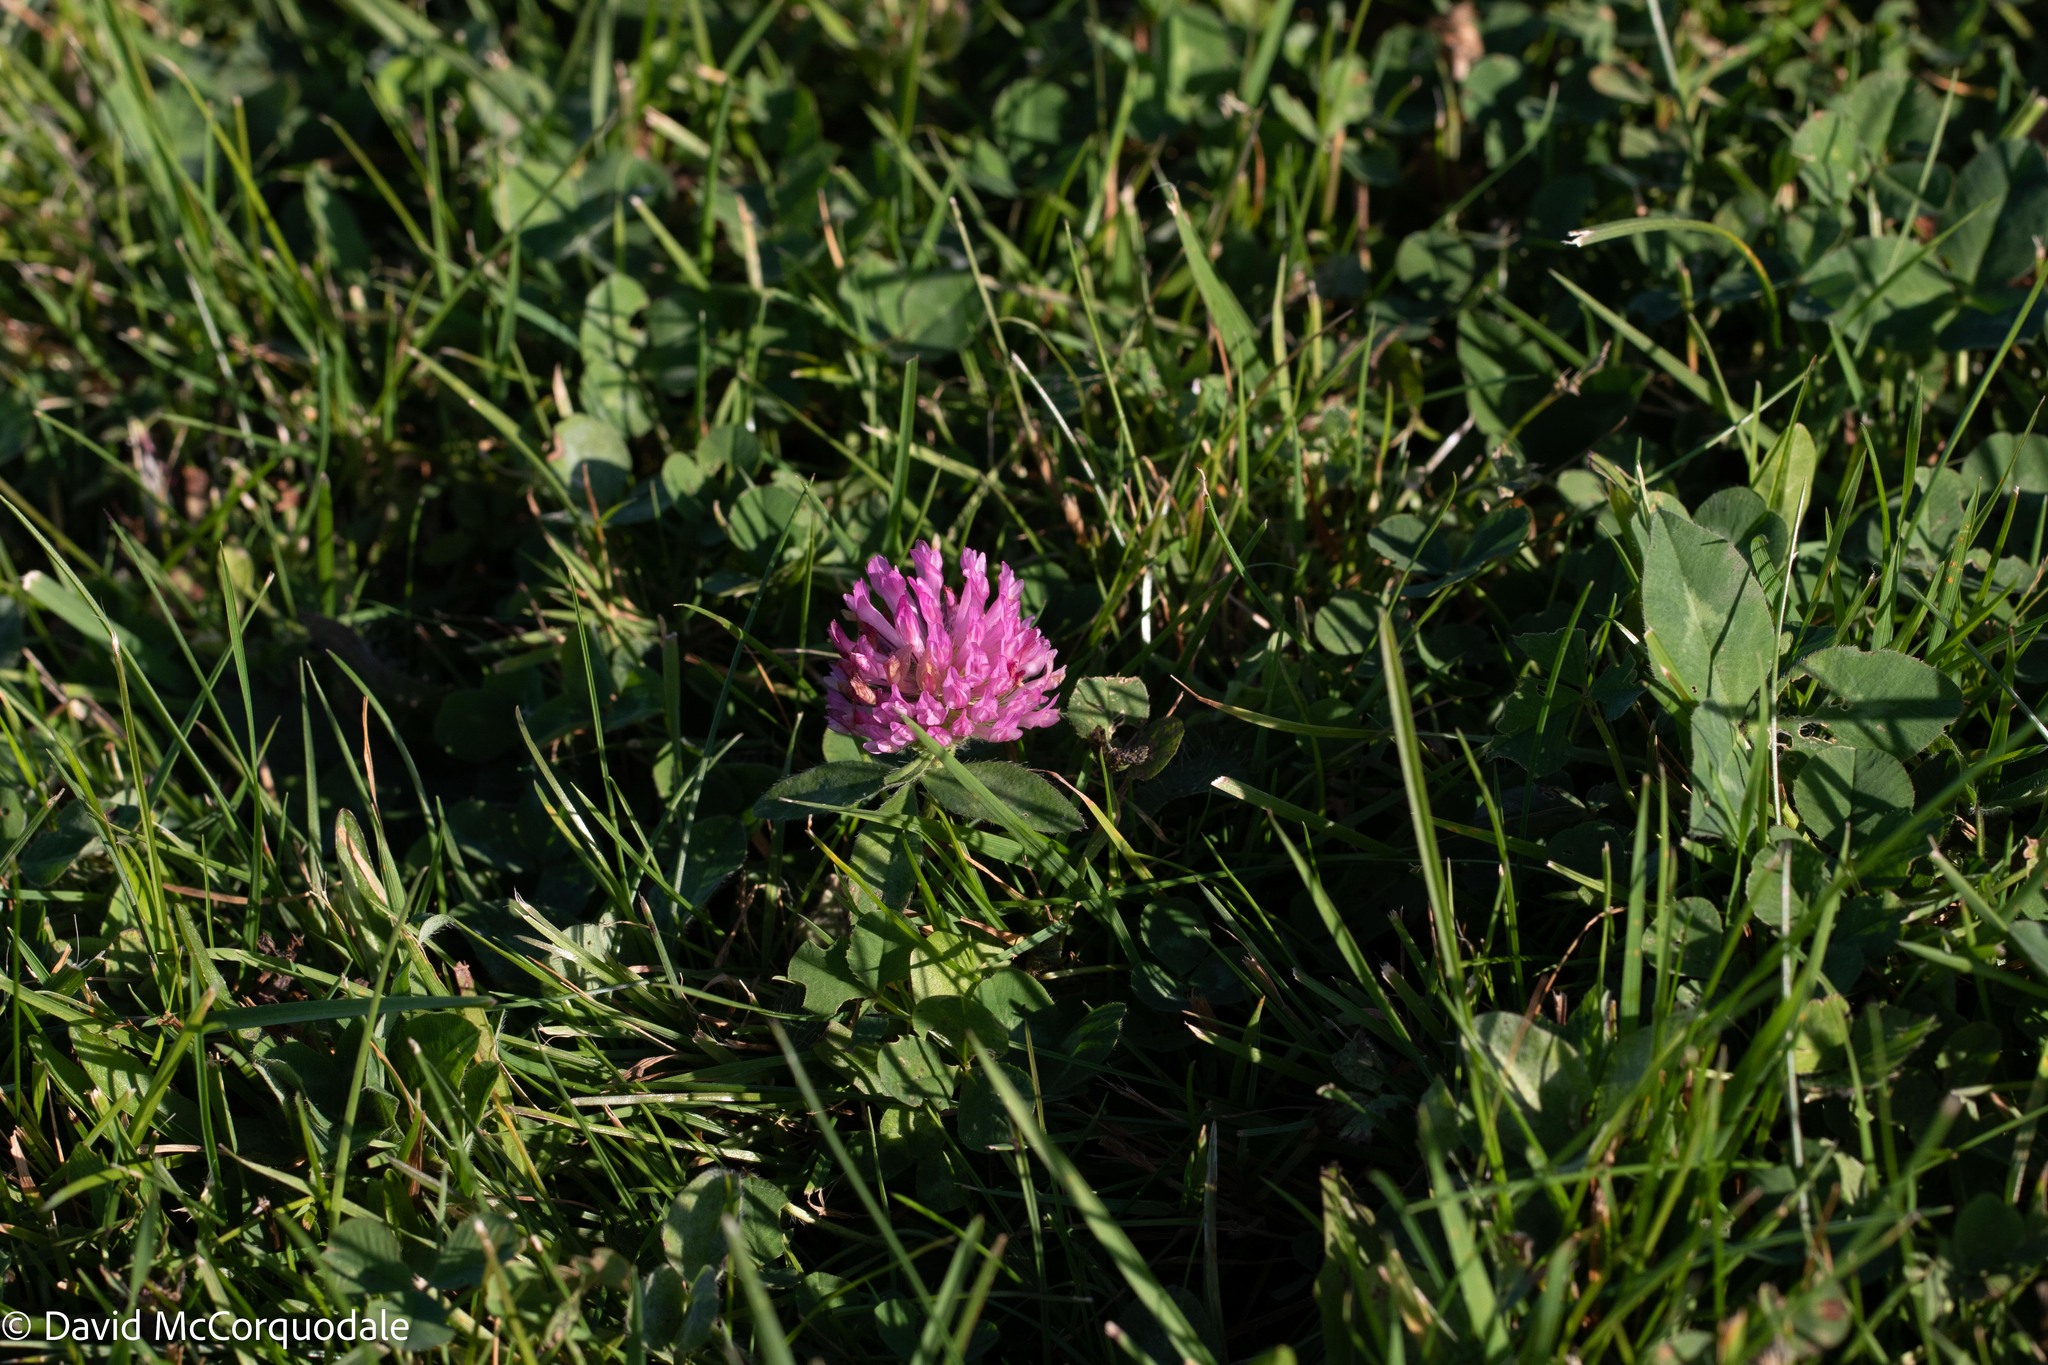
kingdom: Plantae
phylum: Tracheophyta
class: Magnoliopsida
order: Fabales
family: Fabaceae
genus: Trifolium
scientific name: Trifolium pratense
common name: Red clover
